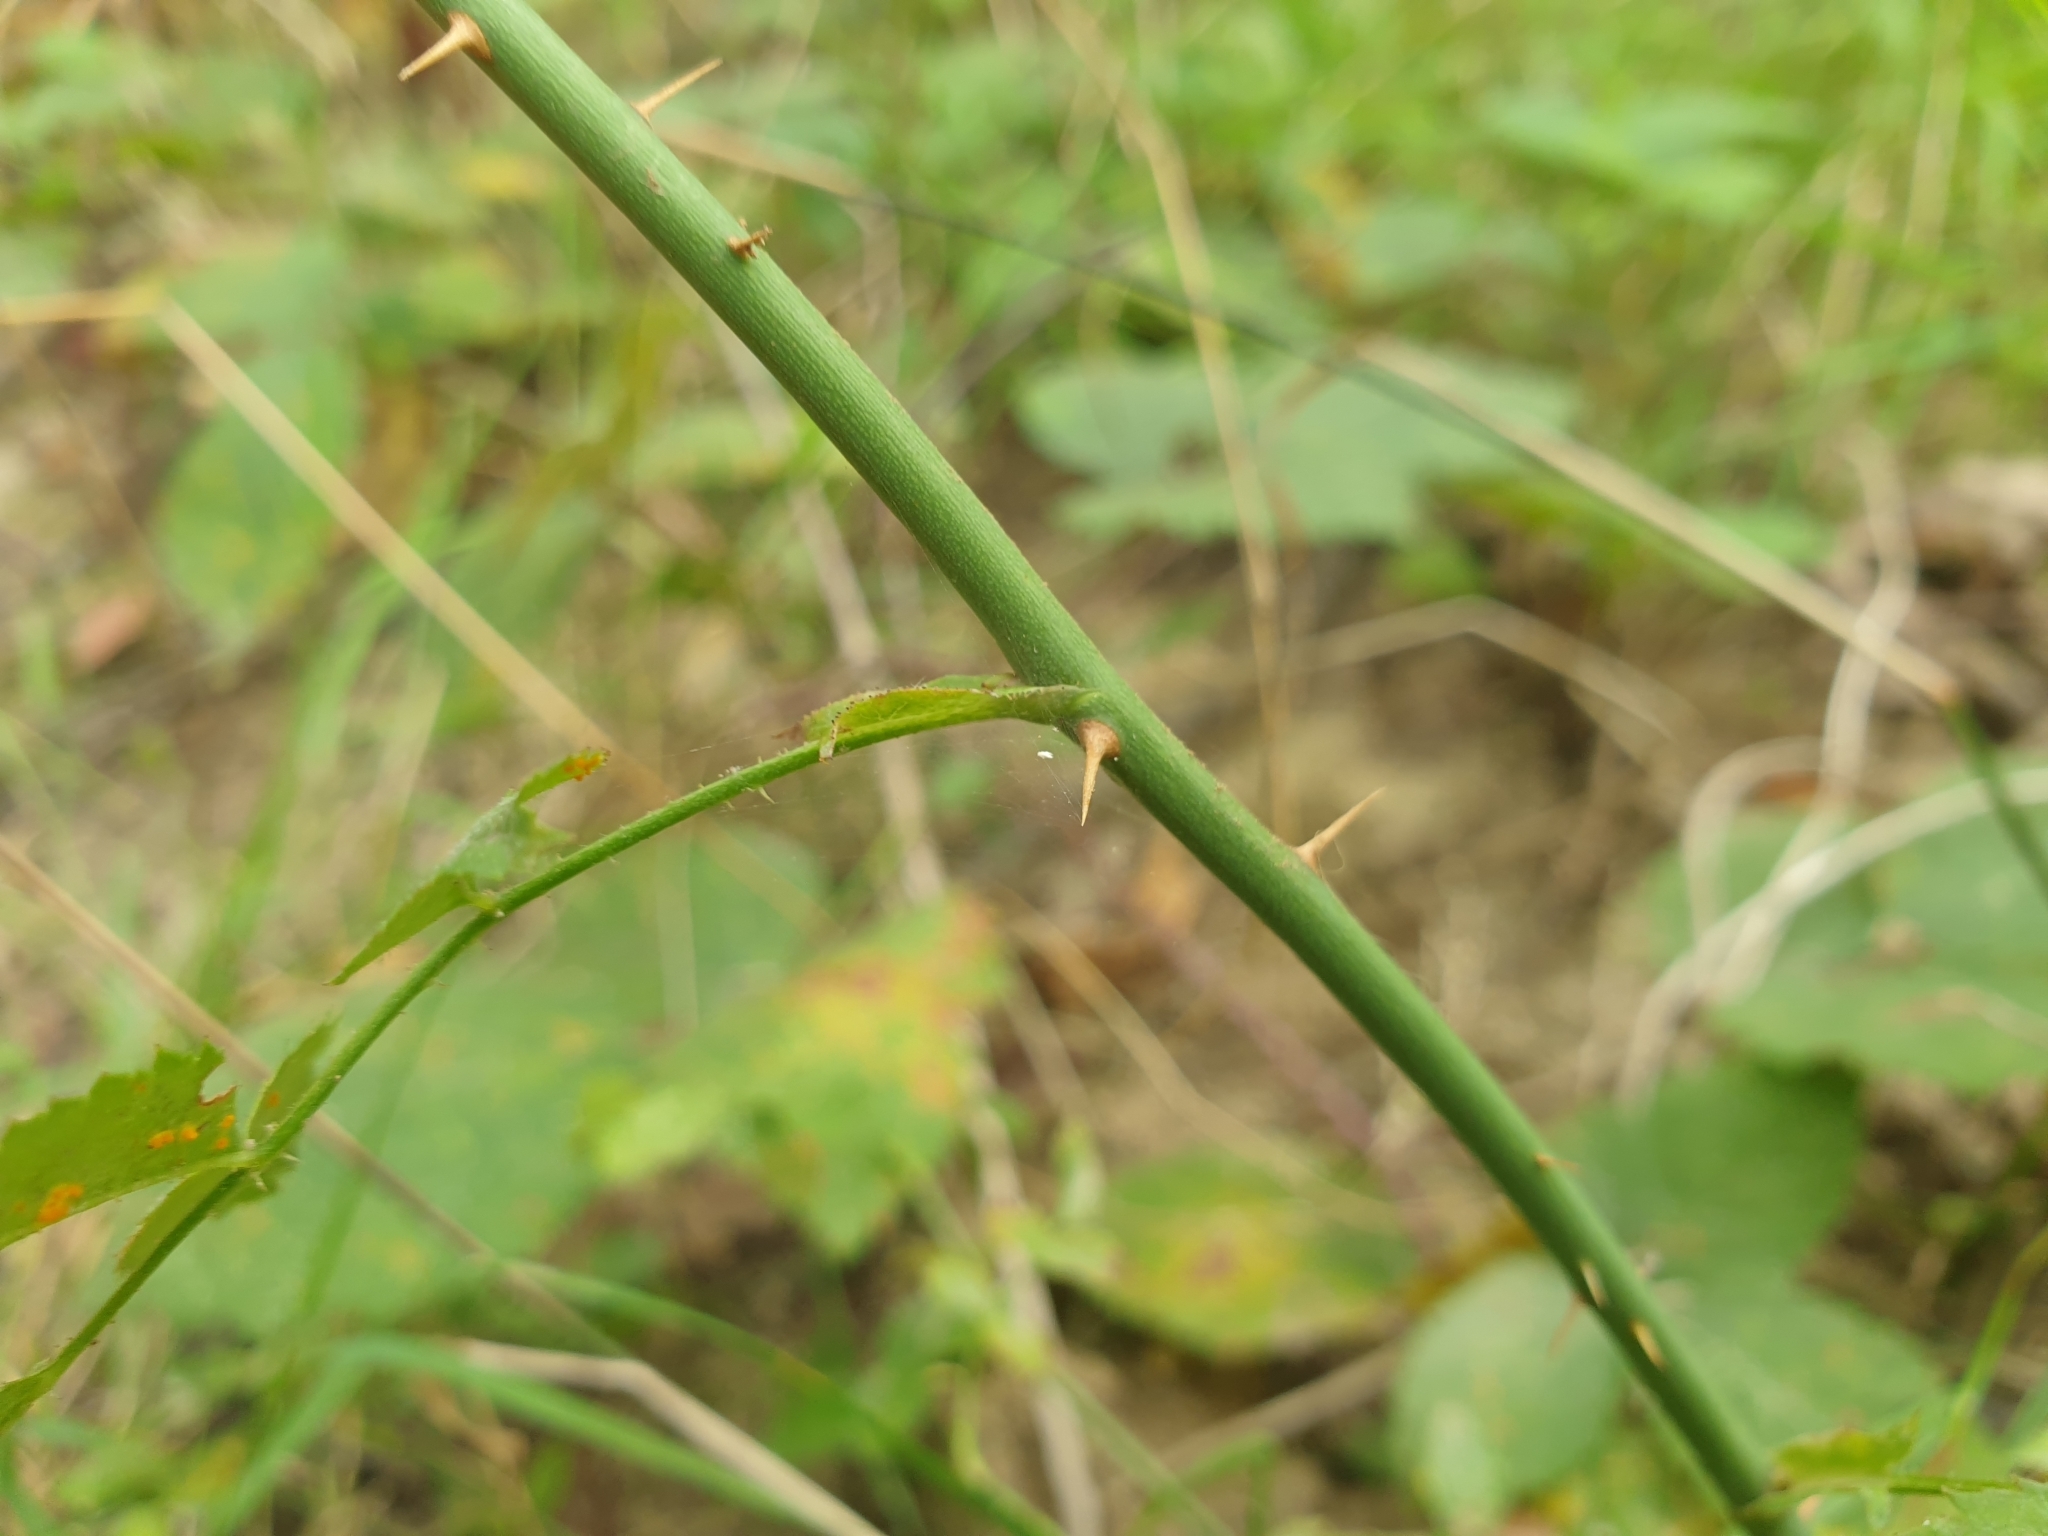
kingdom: Plantae
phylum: Tracheophyta
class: Magnoliopsida
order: Rosales
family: Rosaceae
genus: Rosa
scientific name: Rosa arvensis
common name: Field rose
